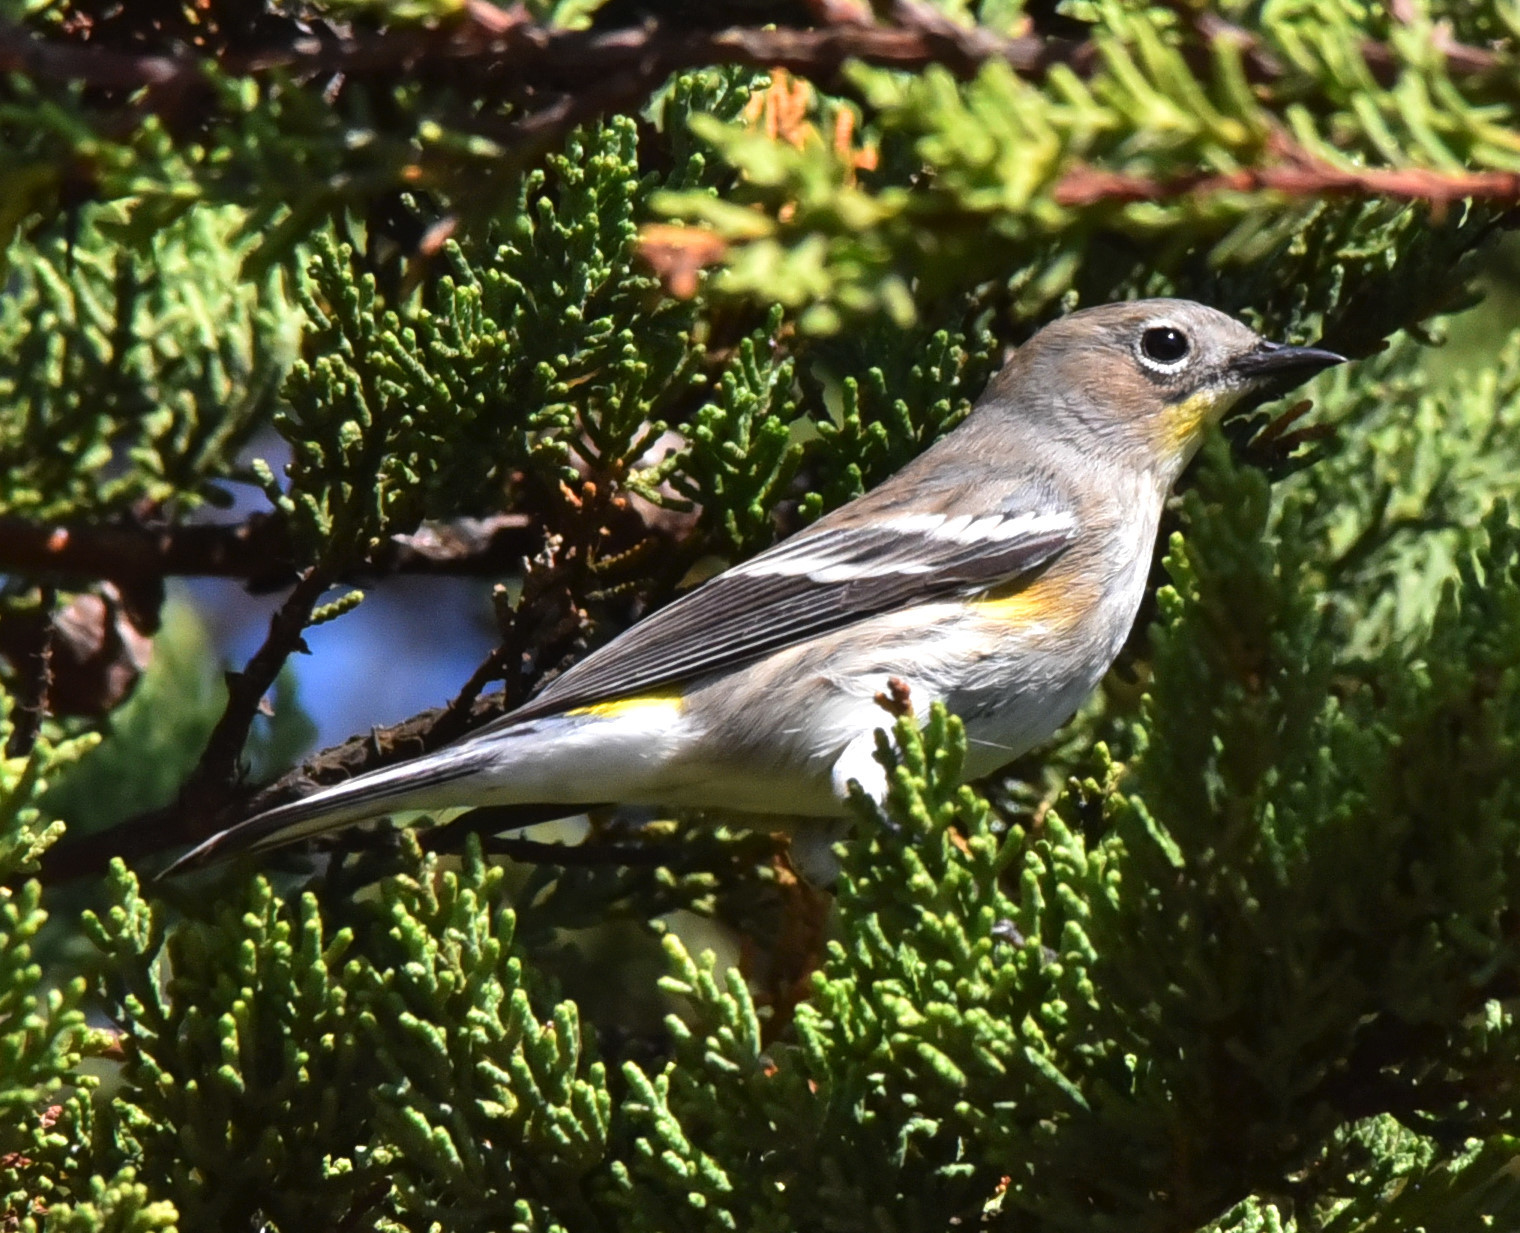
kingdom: Animalia
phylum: Chordata
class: Aves
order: Passeriformes
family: Parulidae
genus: Setophaga
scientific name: Setophaga coronata
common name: Myrtle warbler
